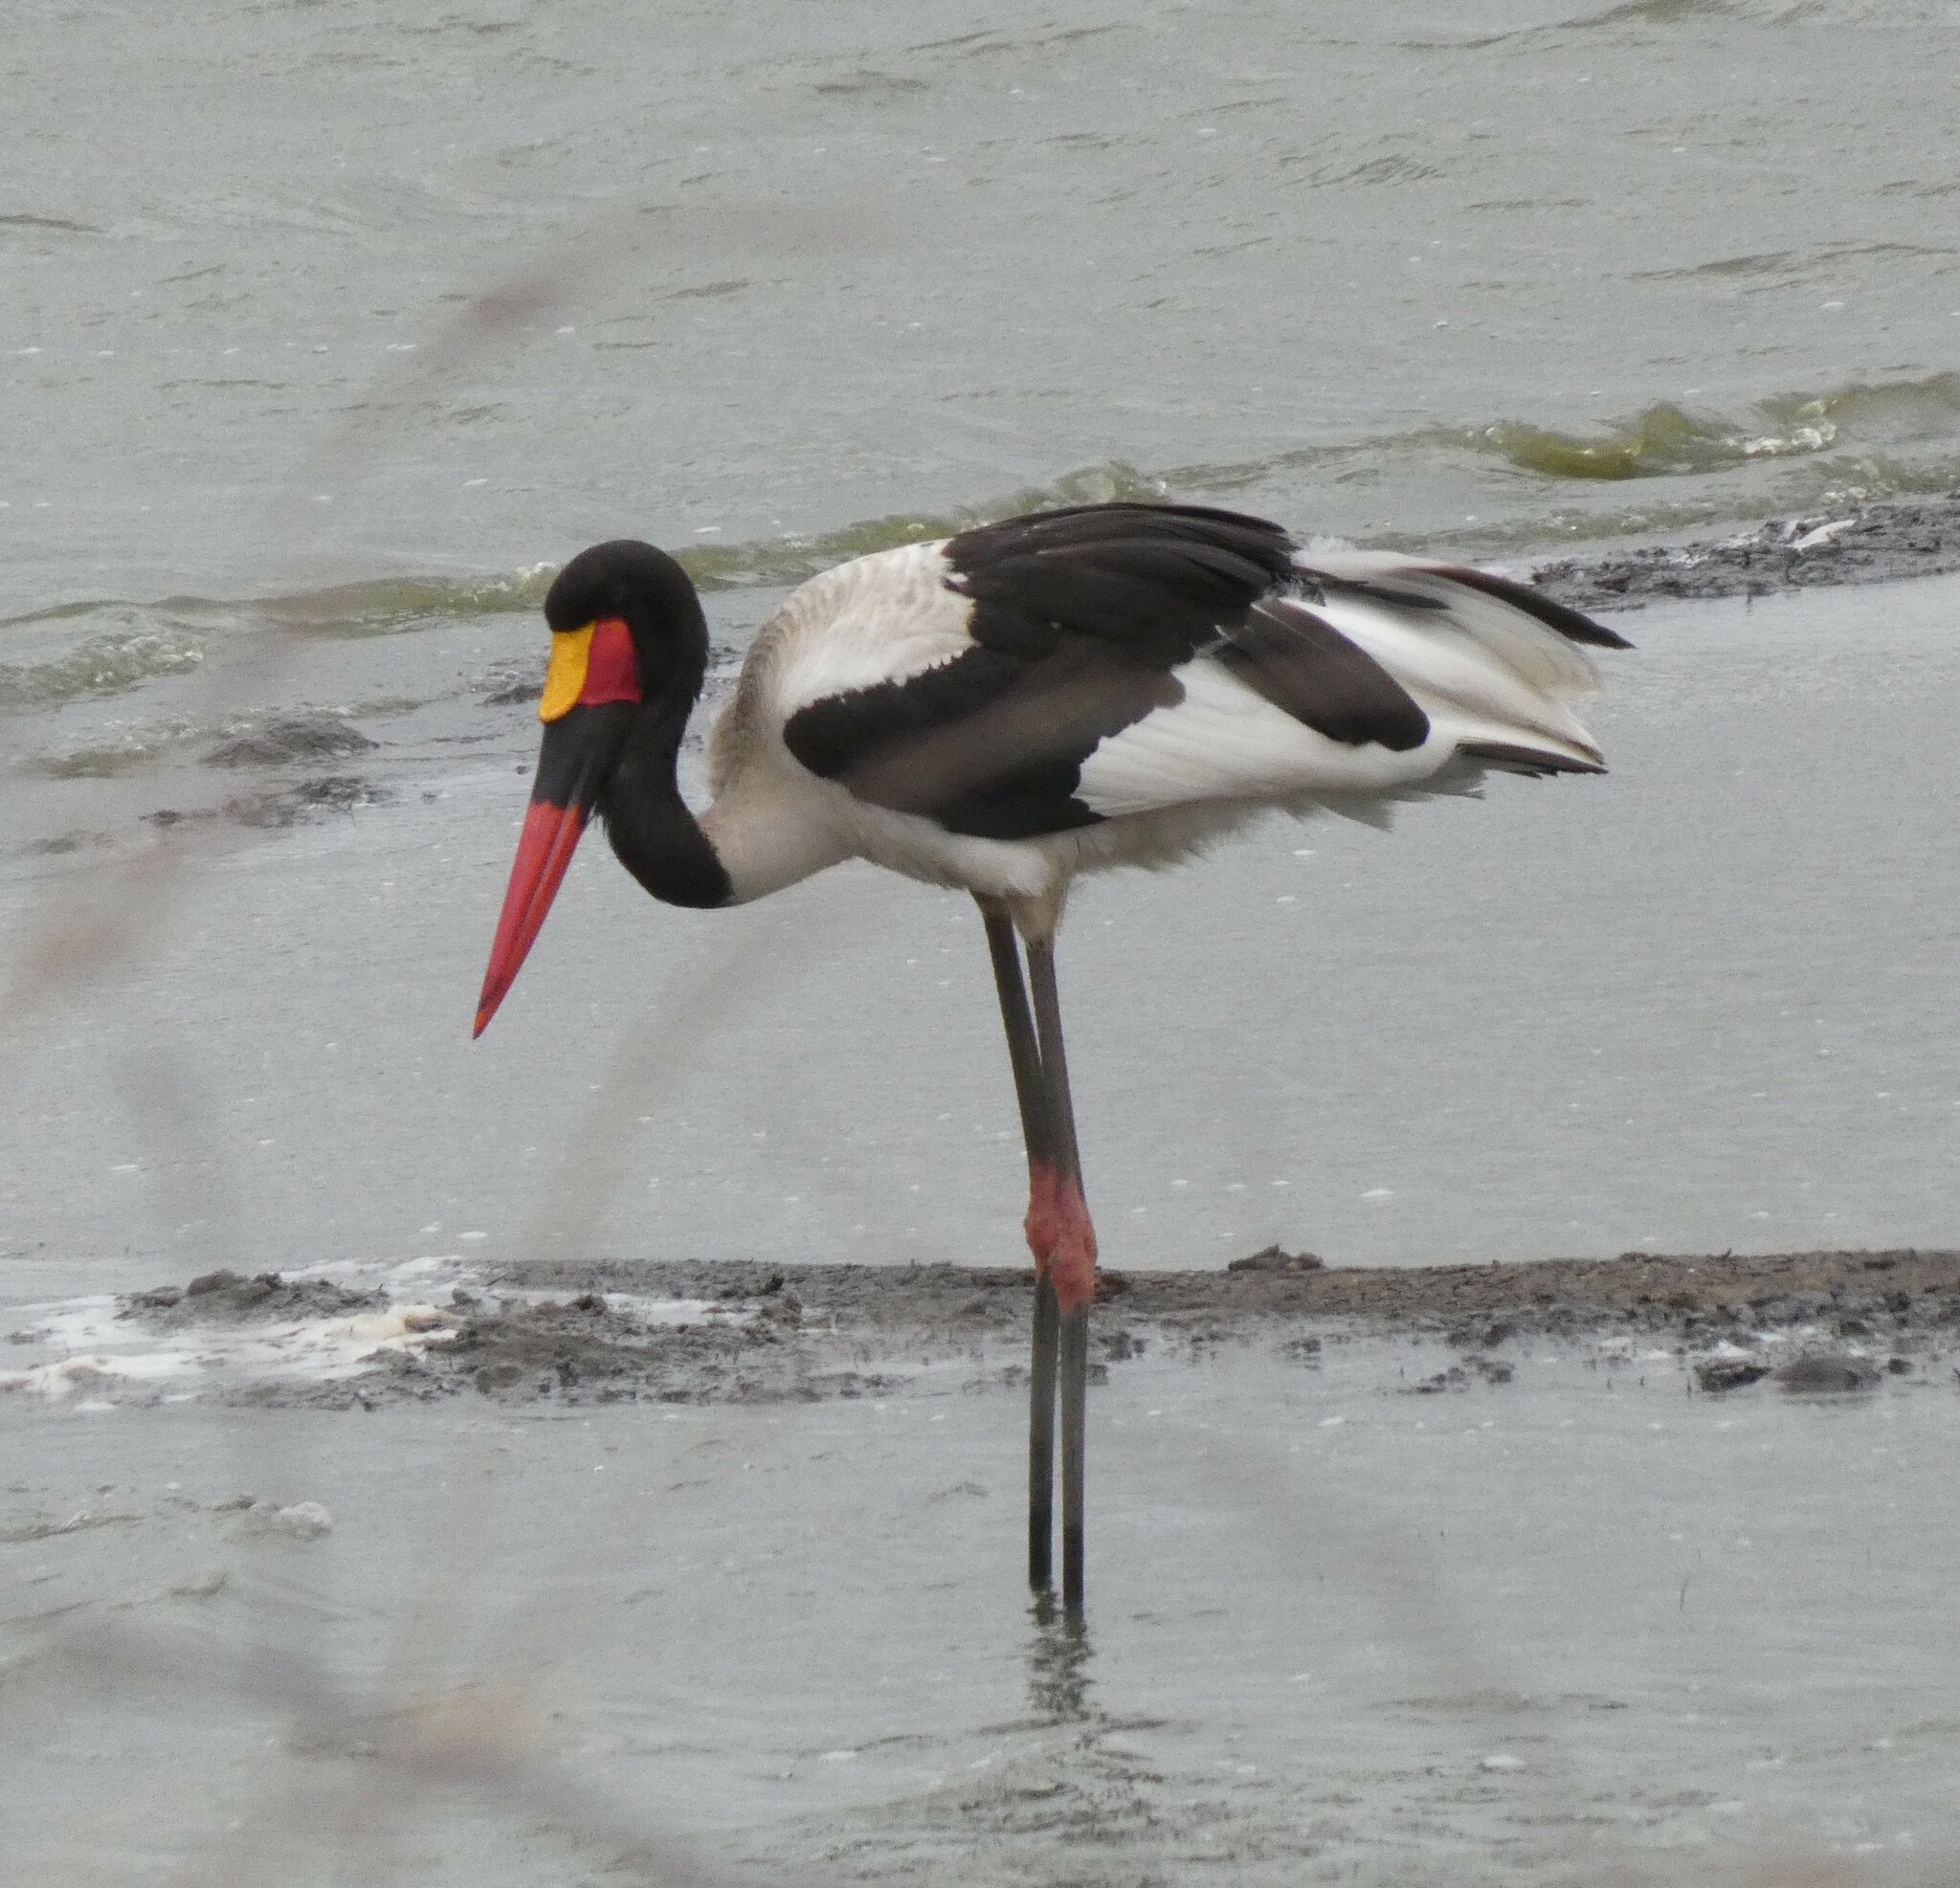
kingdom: Animalia
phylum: Chordata
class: Aves
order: Ciconiiformes
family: Ciconiidae
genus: Ephippiorhynchus
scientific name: Ephippiorhynchus senegalensis
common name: Saddle-billed stork
